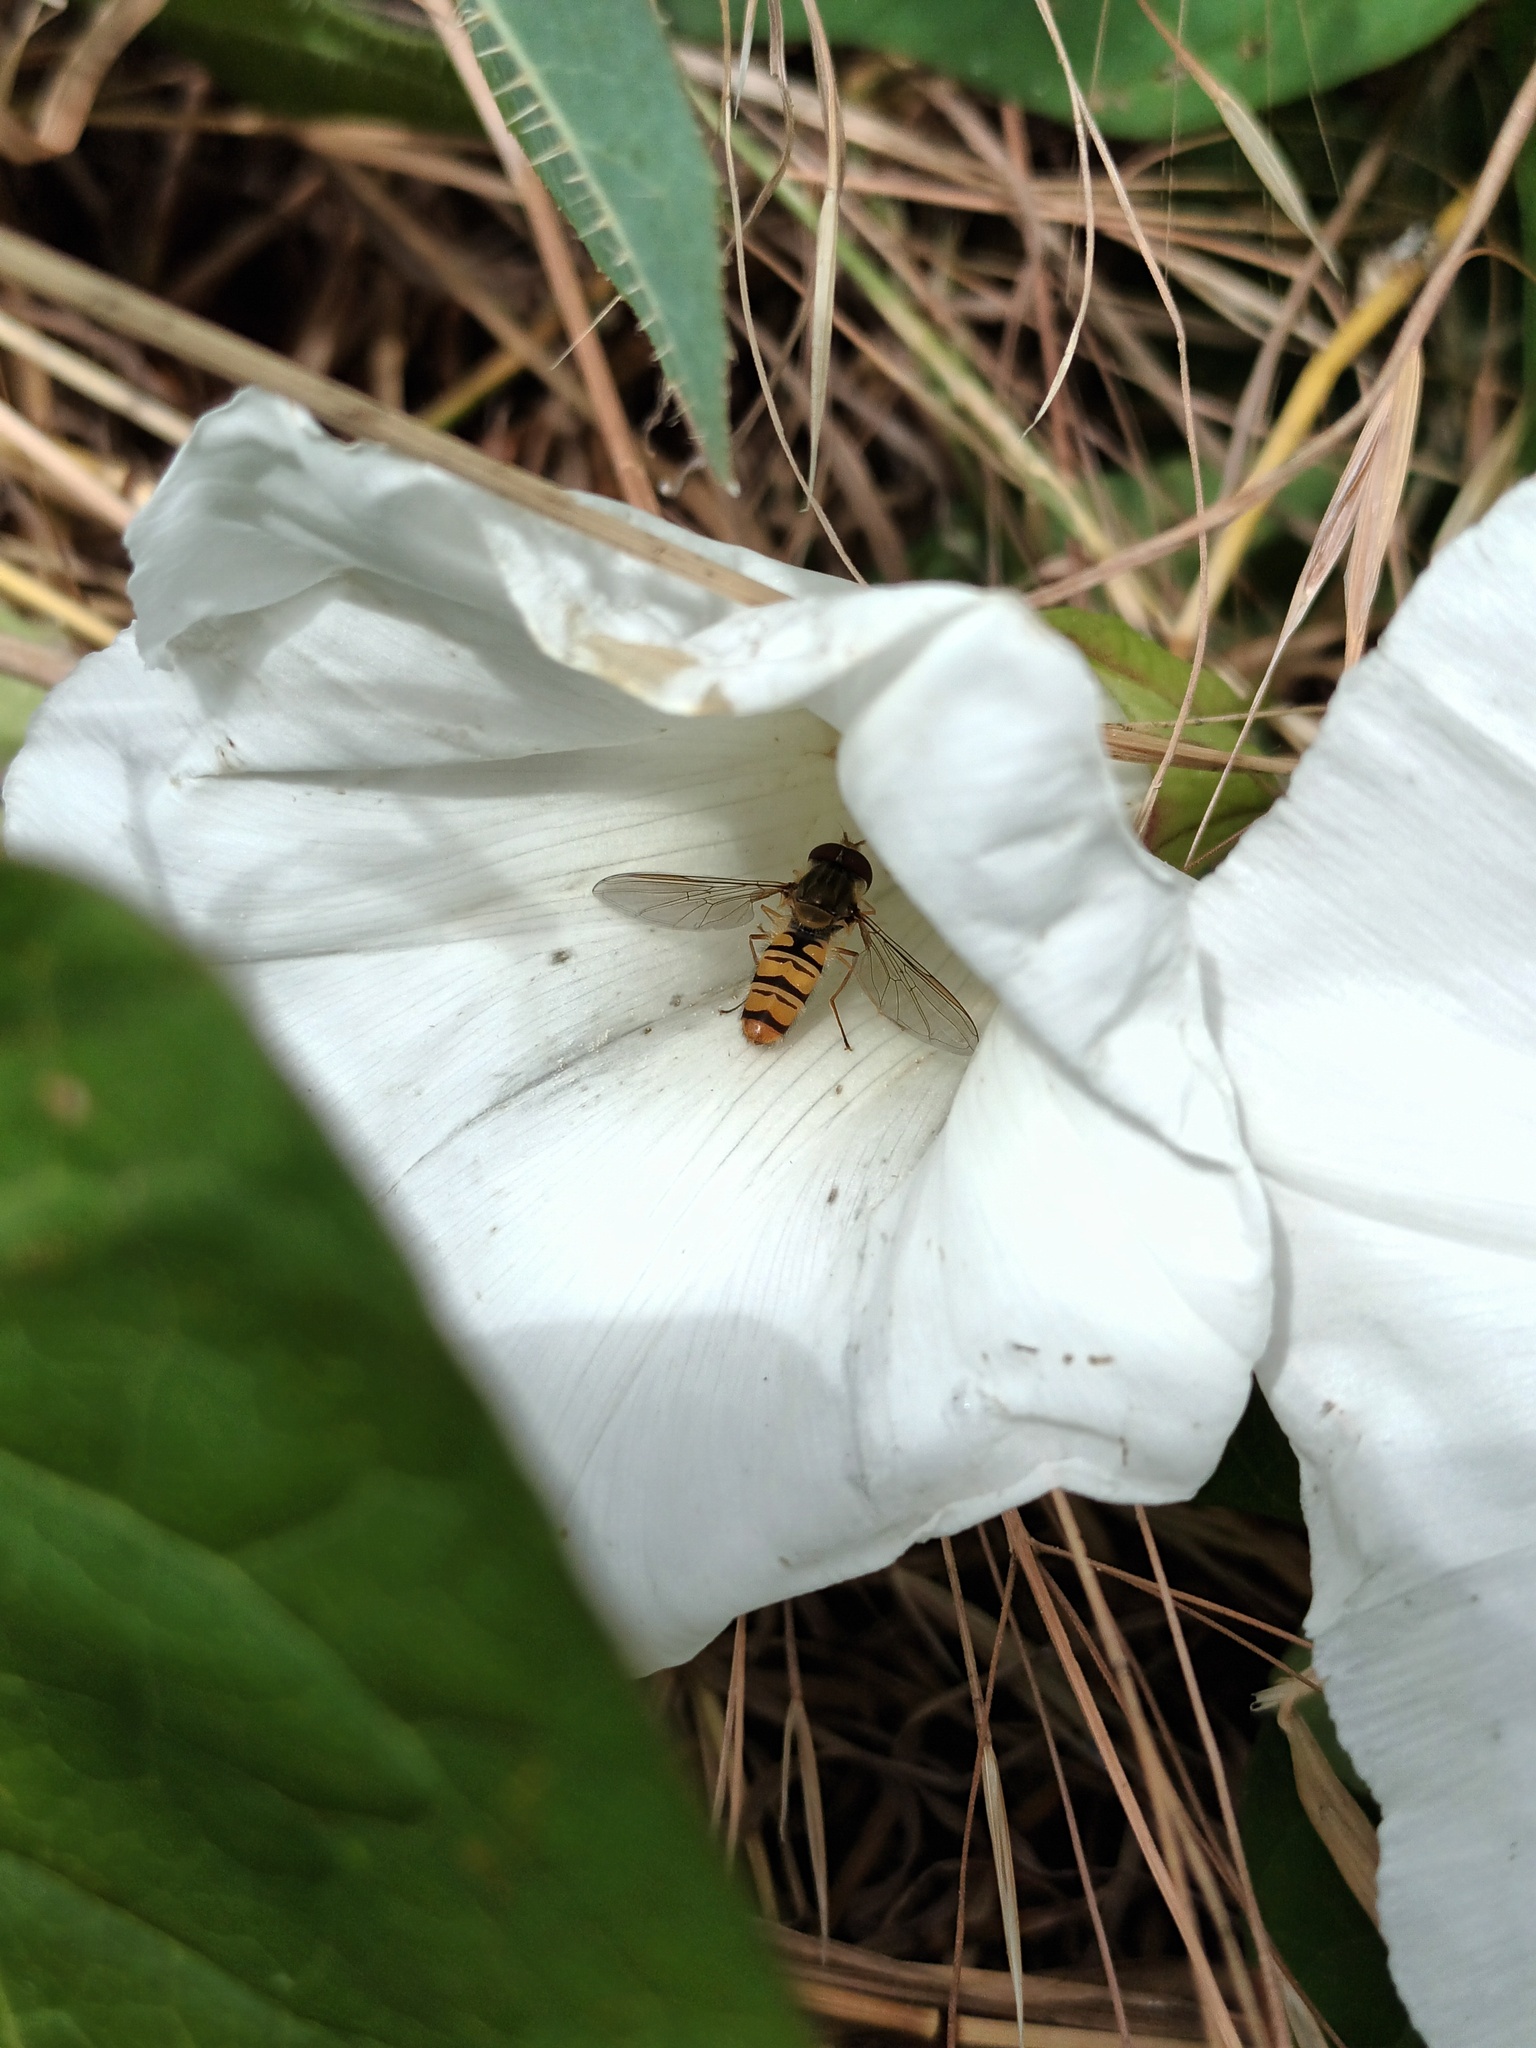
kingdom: Animalia
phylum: Arthropoda
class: Insecta
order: Diptera
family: Syrphidae
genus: Episyrphus
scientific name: Episyrphus balteatus
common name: Marmalade hoverfly
